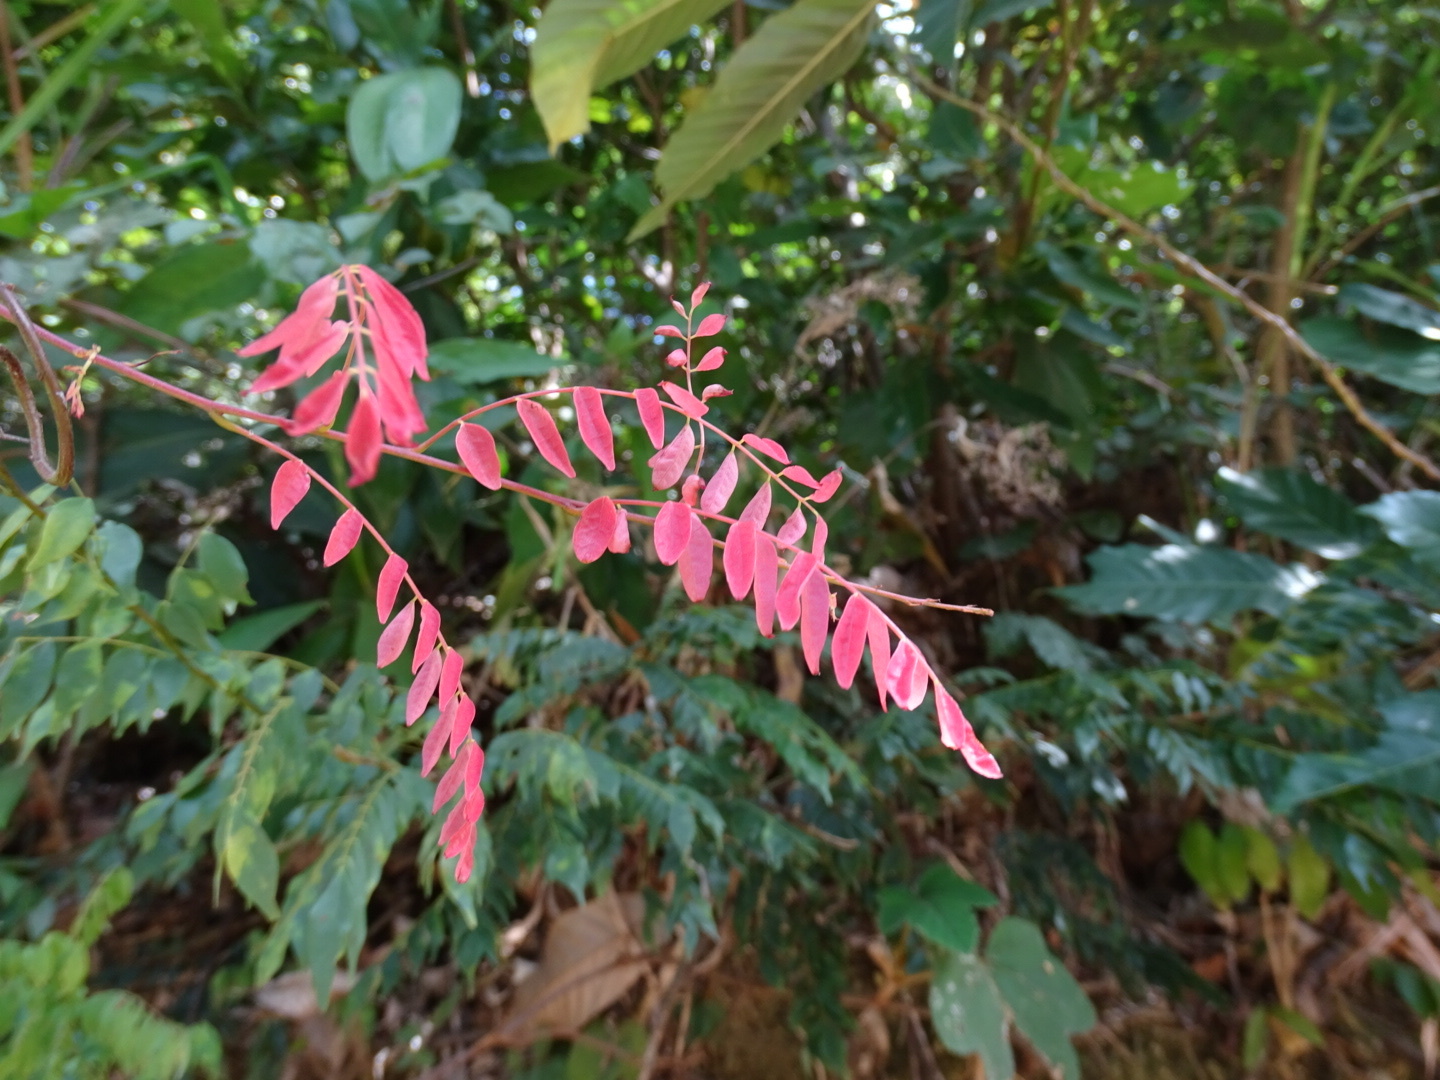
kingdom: Plantae
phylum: Tracheophyta
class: Magnoliopsida
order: Oxalidales
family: Connaraceae
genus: Rourea
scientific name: Rourea microphylla
